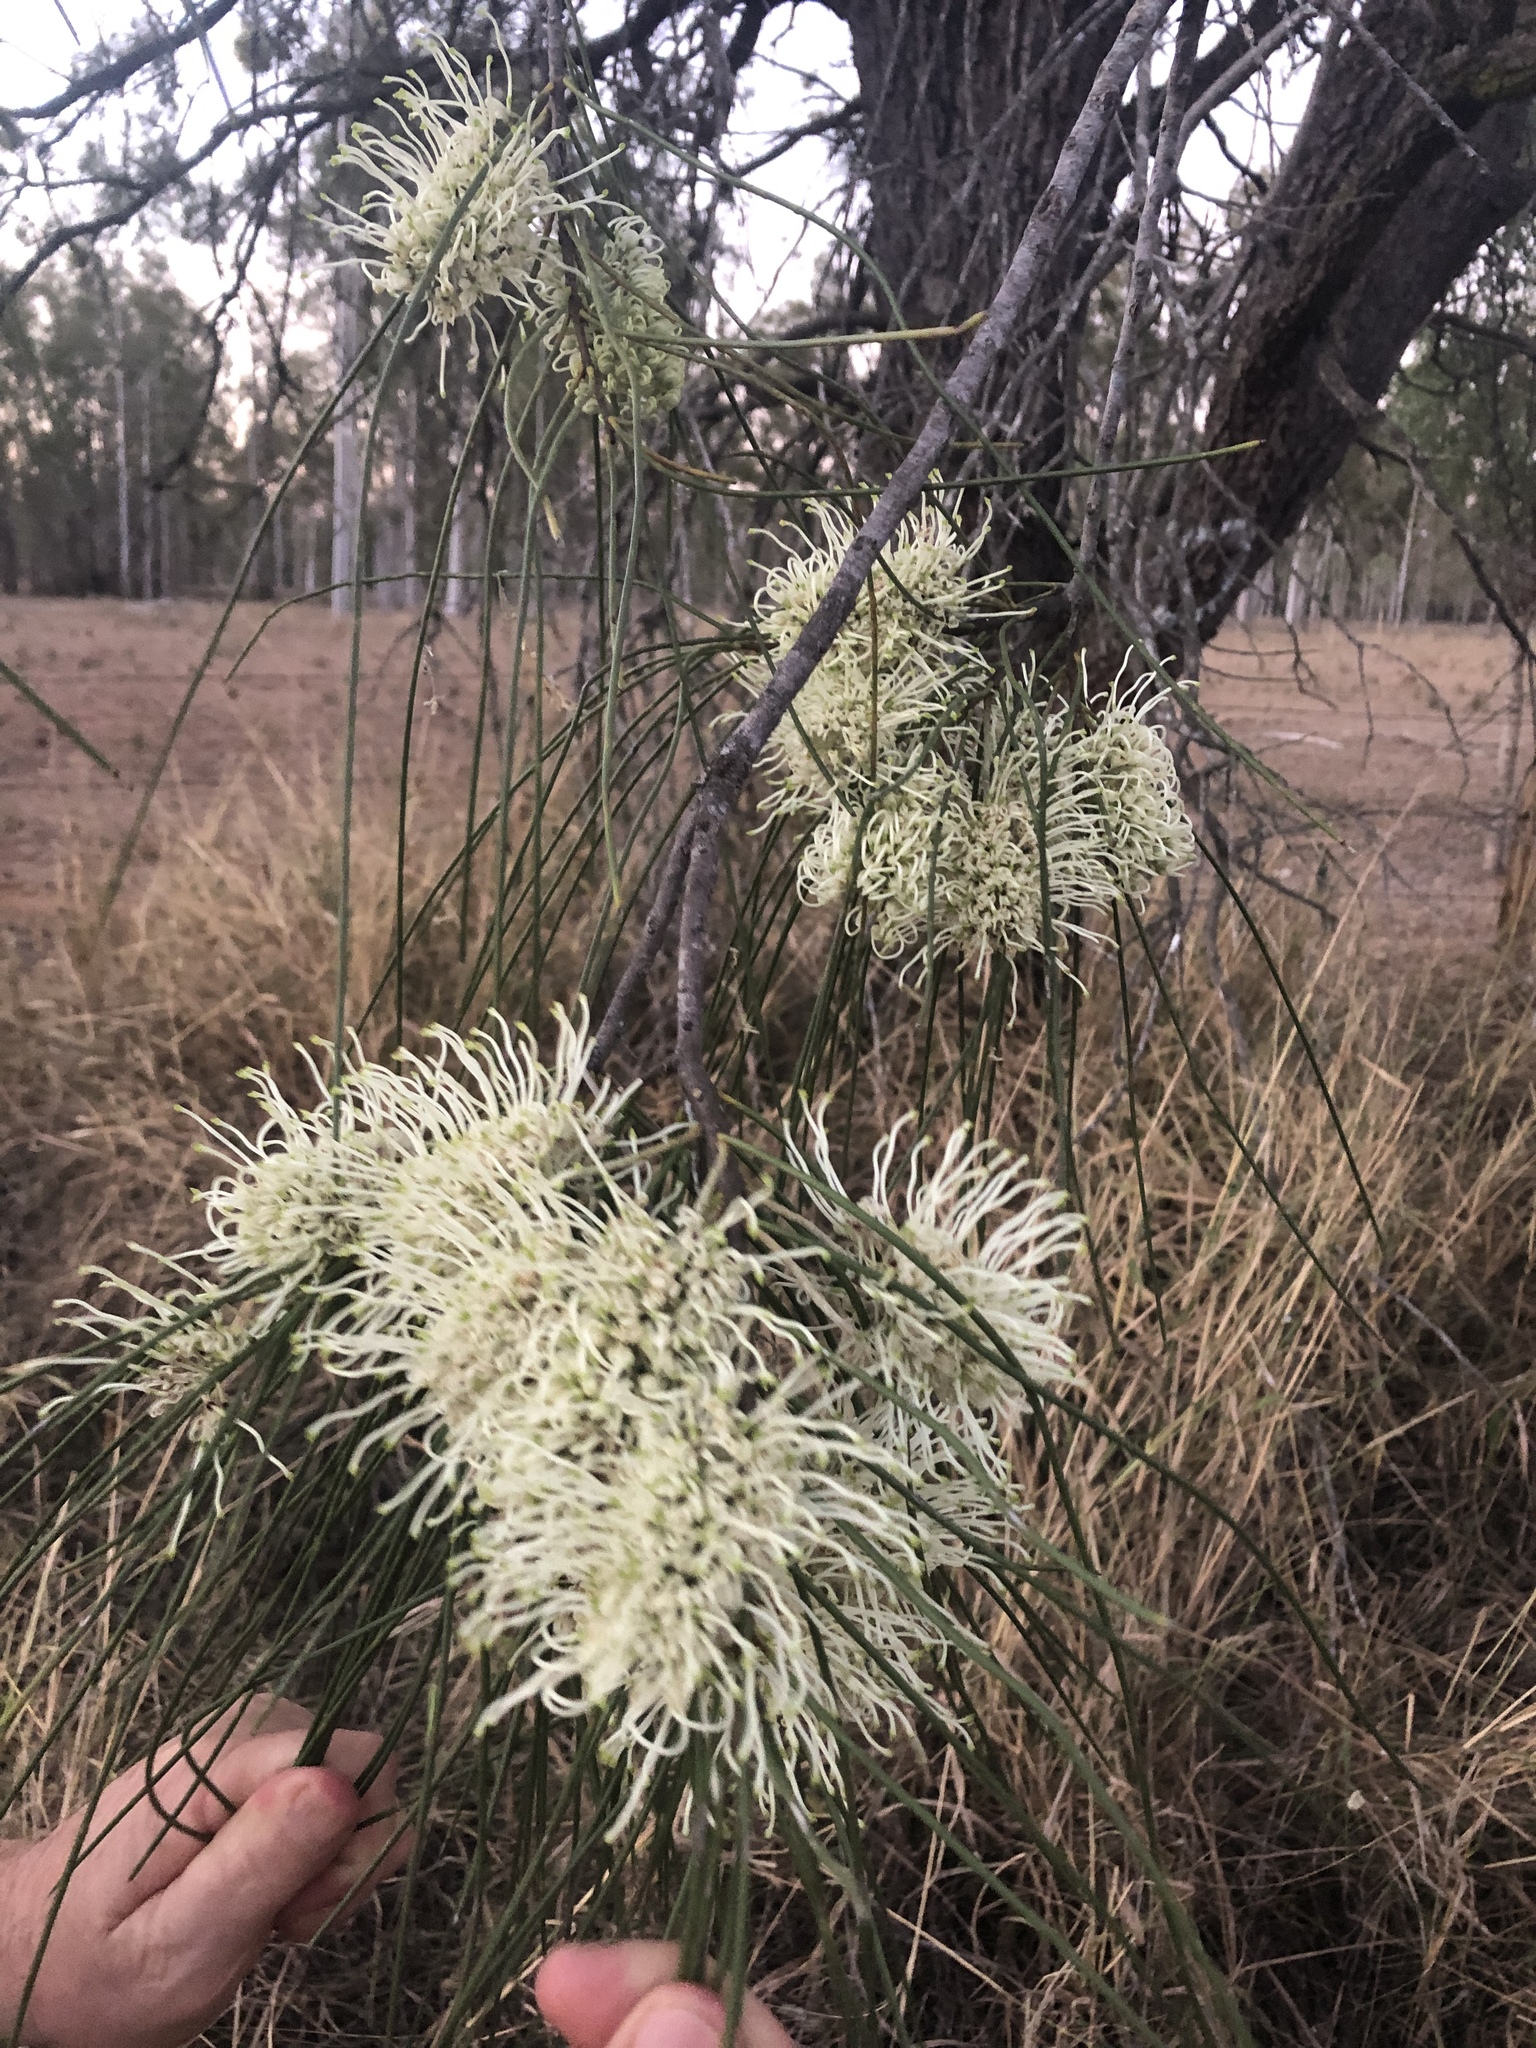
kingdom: Plantae
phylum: Tracheophyta
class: Magnoliopsida
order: Proteales
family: Proteaceae
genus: Hakea
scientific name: Hakea lorea
